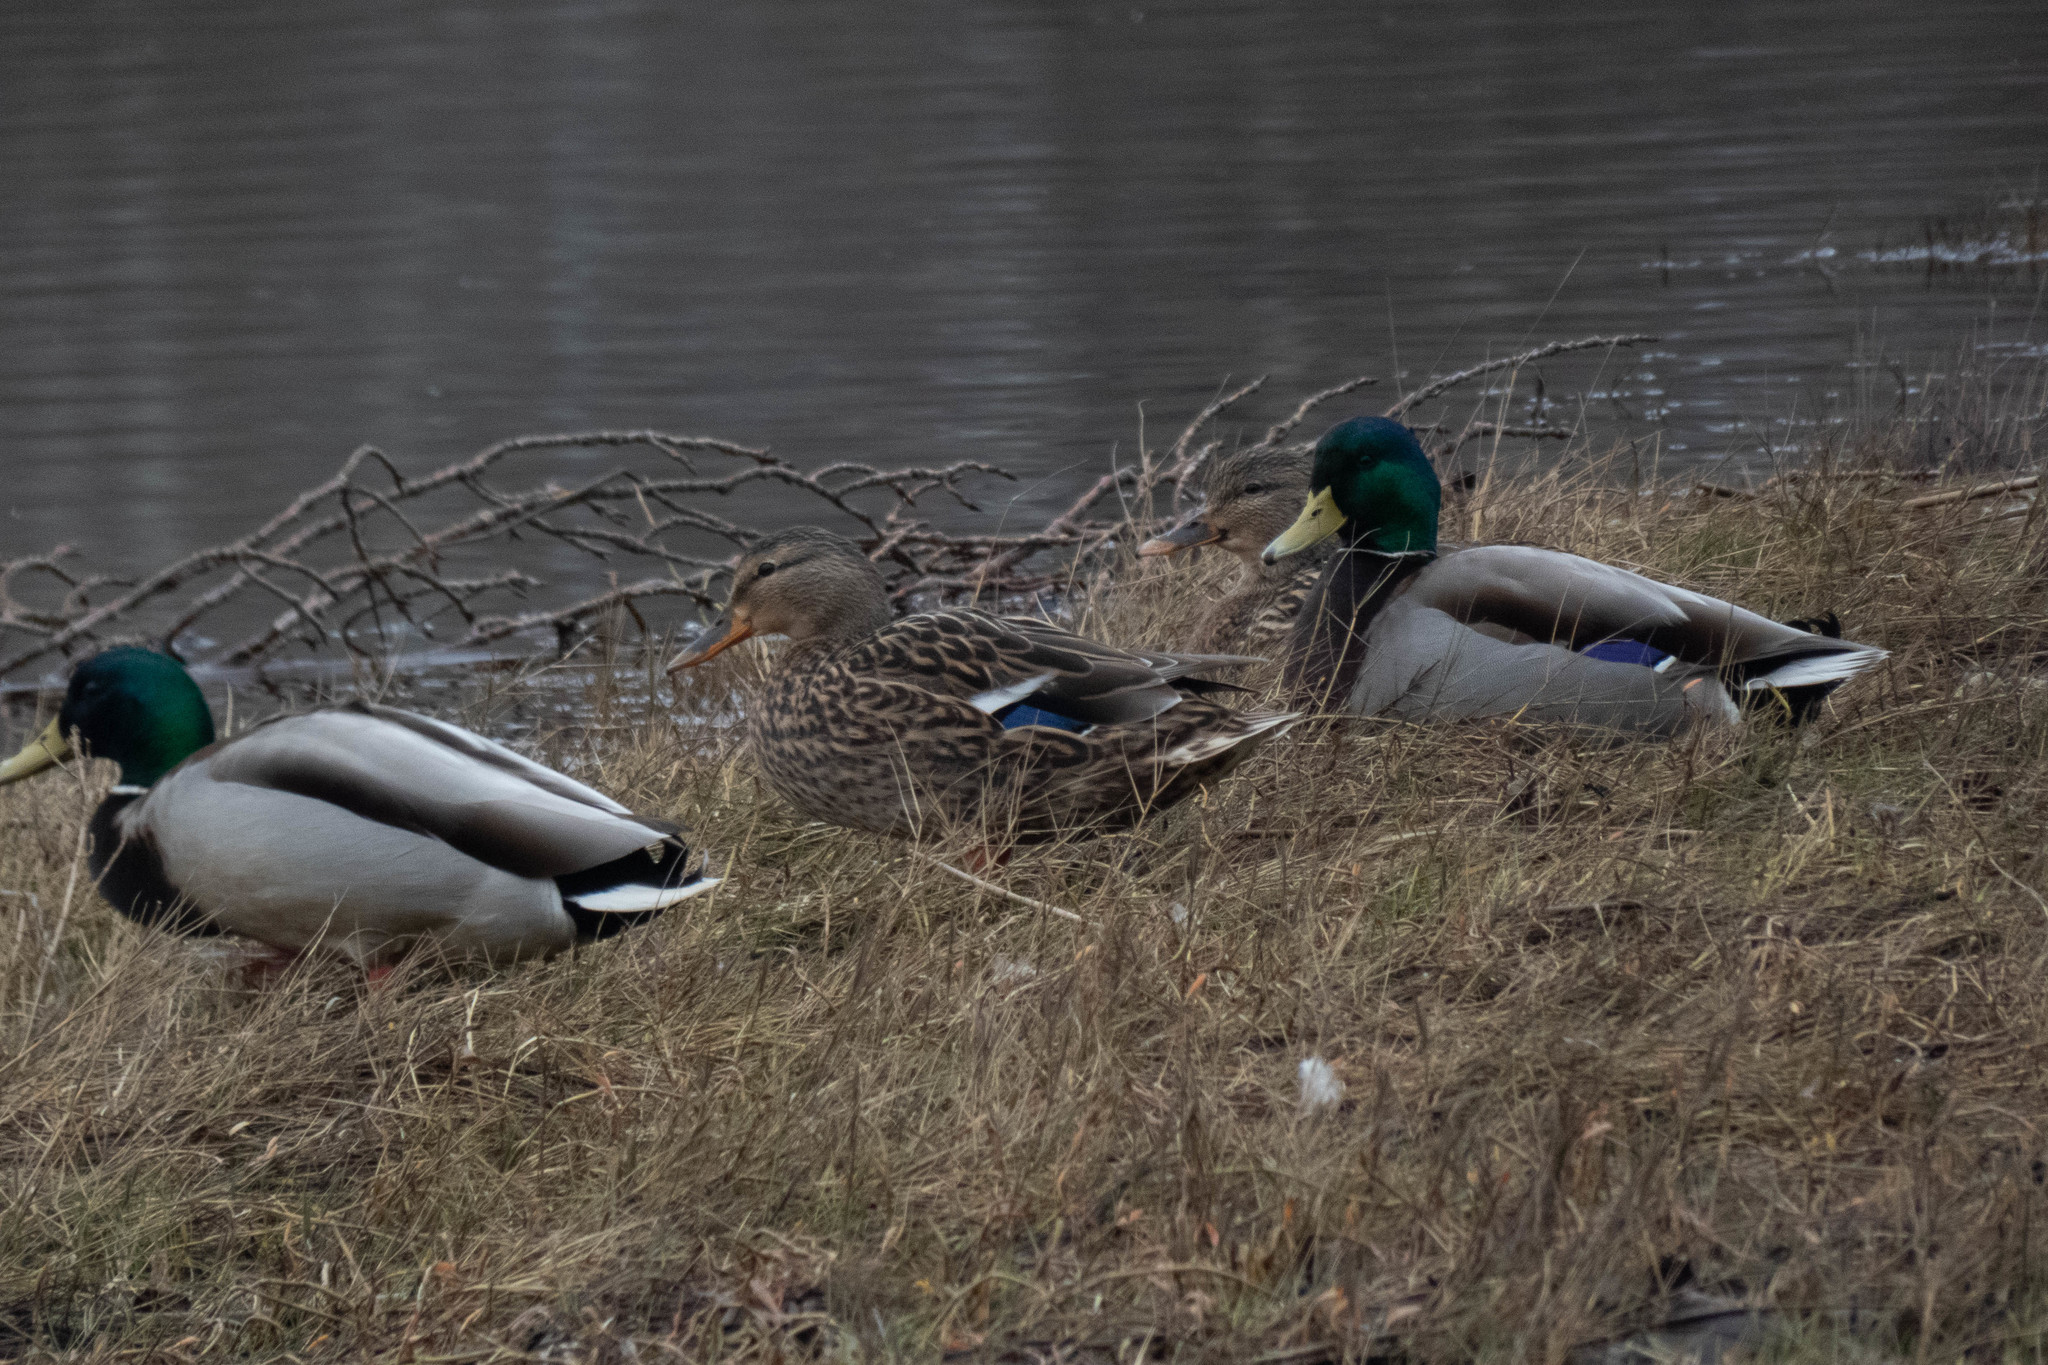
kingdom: Animalia
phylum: Chordata
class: Aves
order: Anseriformes
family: Anatidae
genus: Anas
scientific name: Anas platyrhynchos
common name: Mallard
